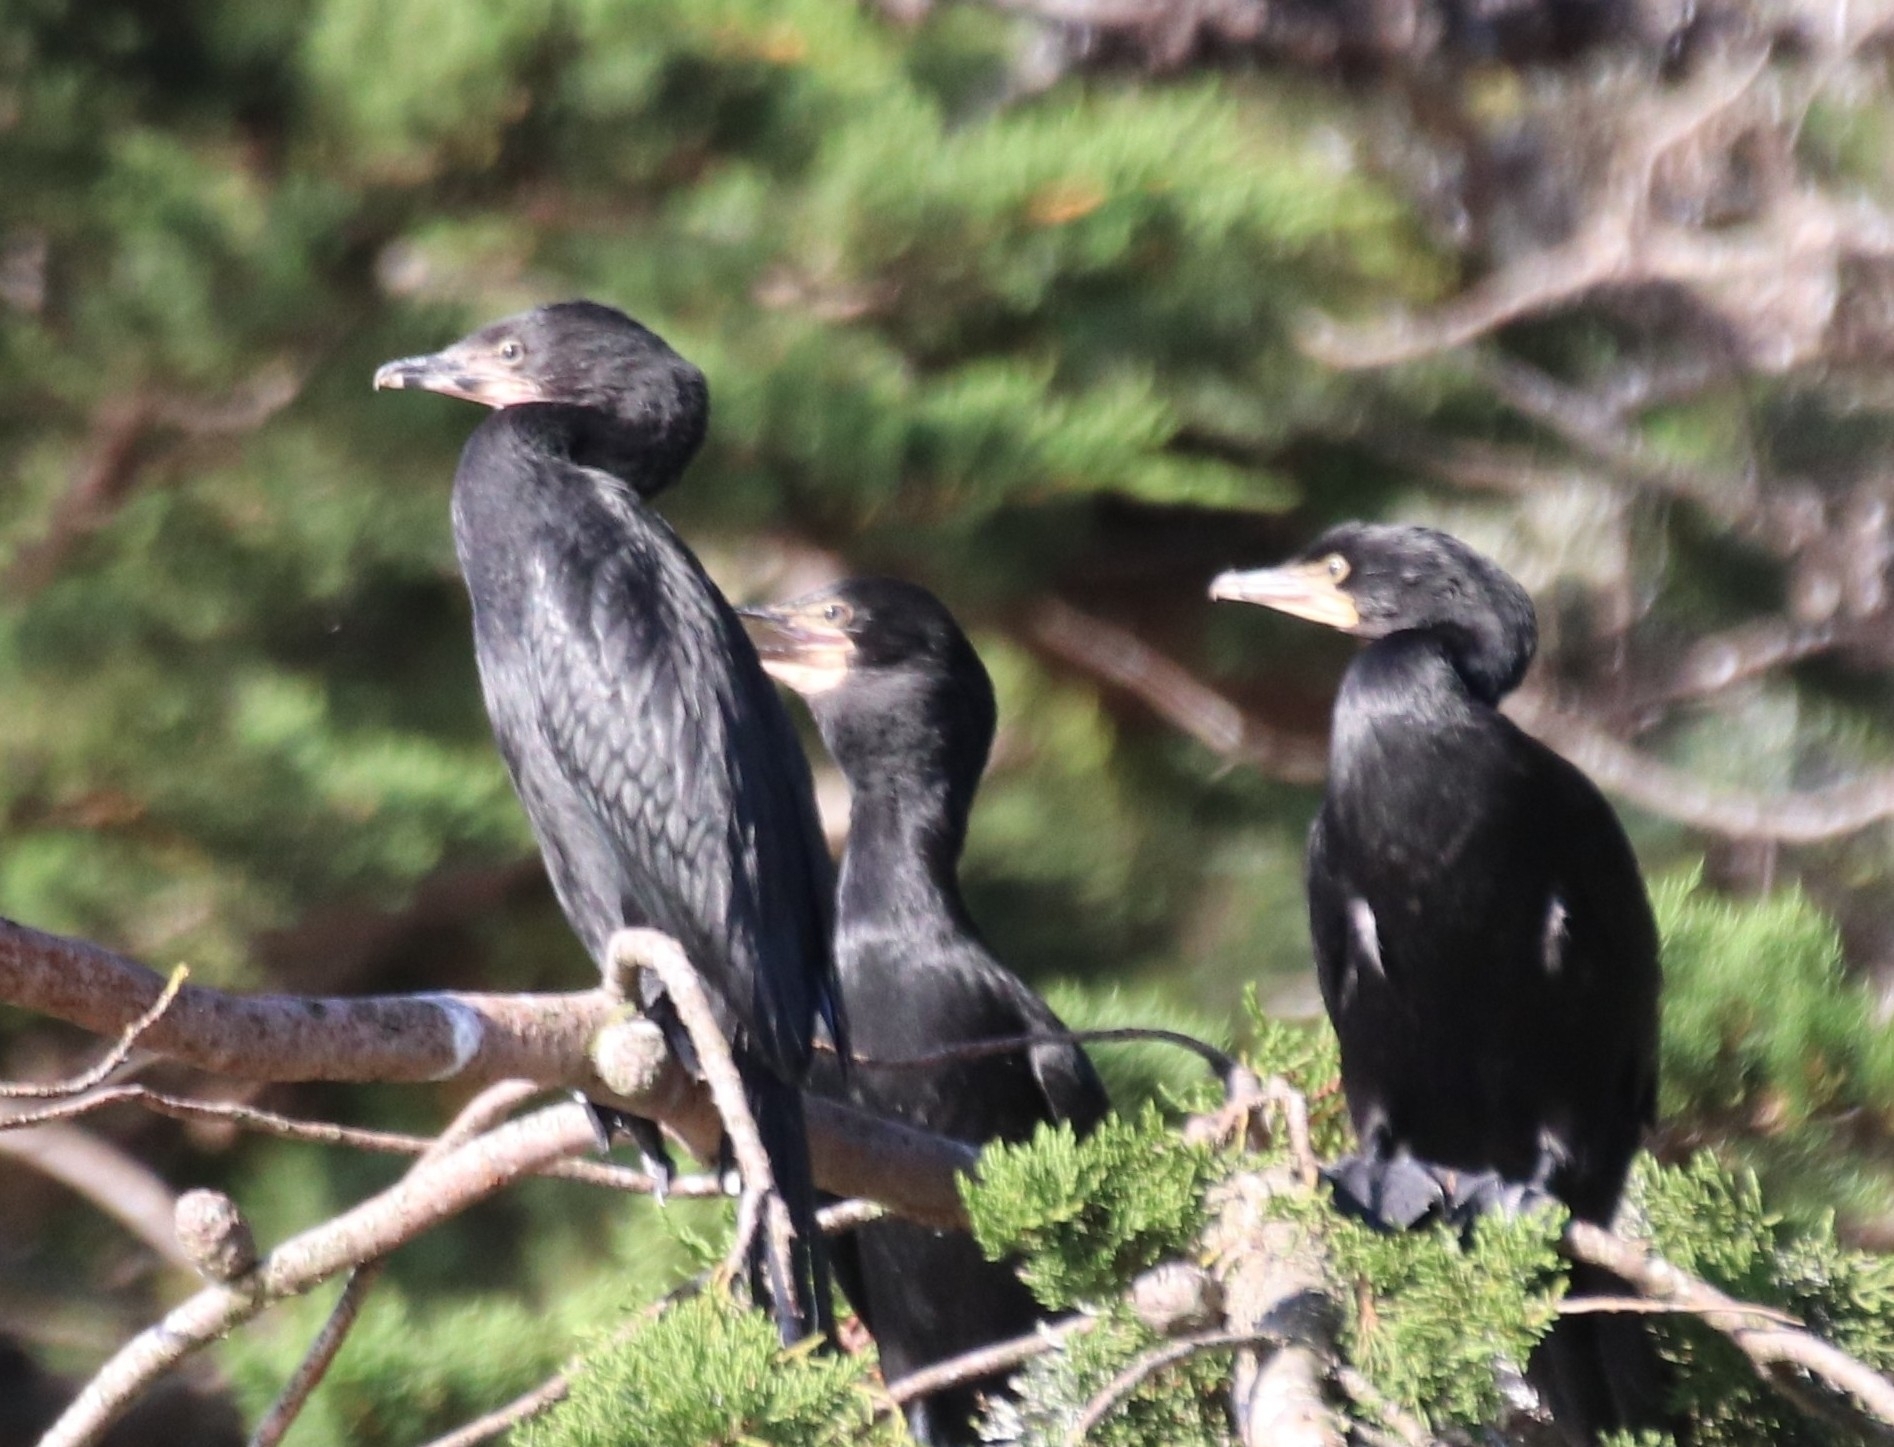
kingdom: Animalia
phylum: Chordata
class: Aves
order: Suliformes
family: Phalacrocoracidae
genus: Microcarbo
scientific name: Microcarbo melanoleucos
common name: Little pied cormorant
